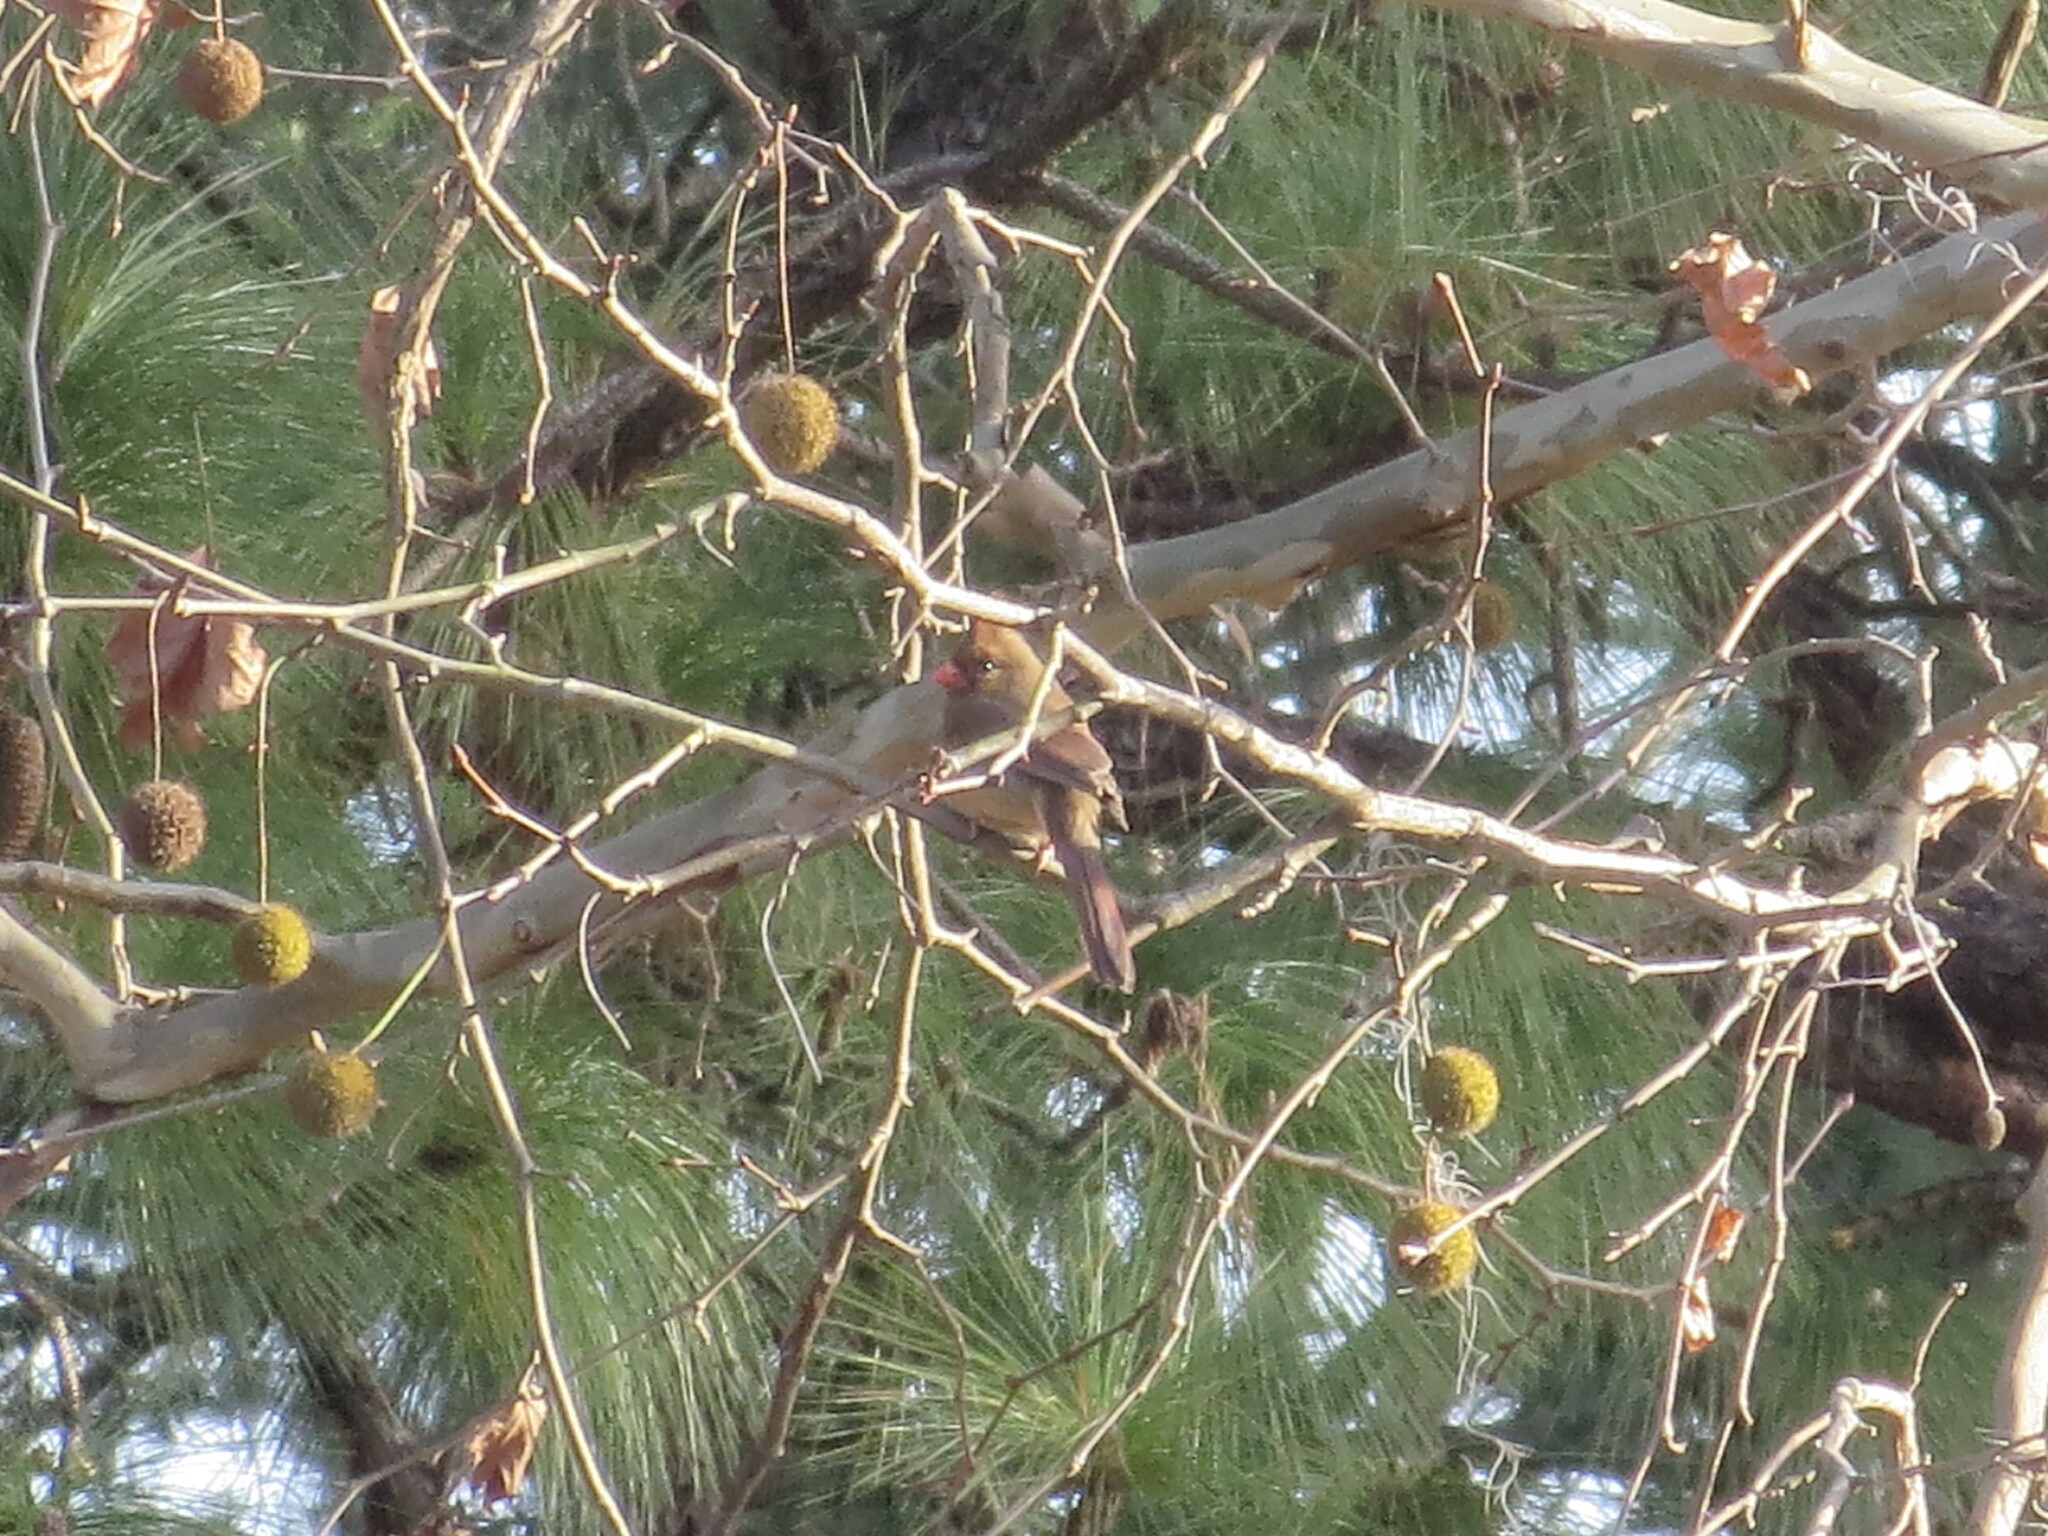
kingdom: Animalia
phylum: Chordata
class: Aves
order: Passeriformes
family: Cardinalidae
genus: Cardinalis
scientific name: Cardinalis cardinalis
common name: Northern cardinal
